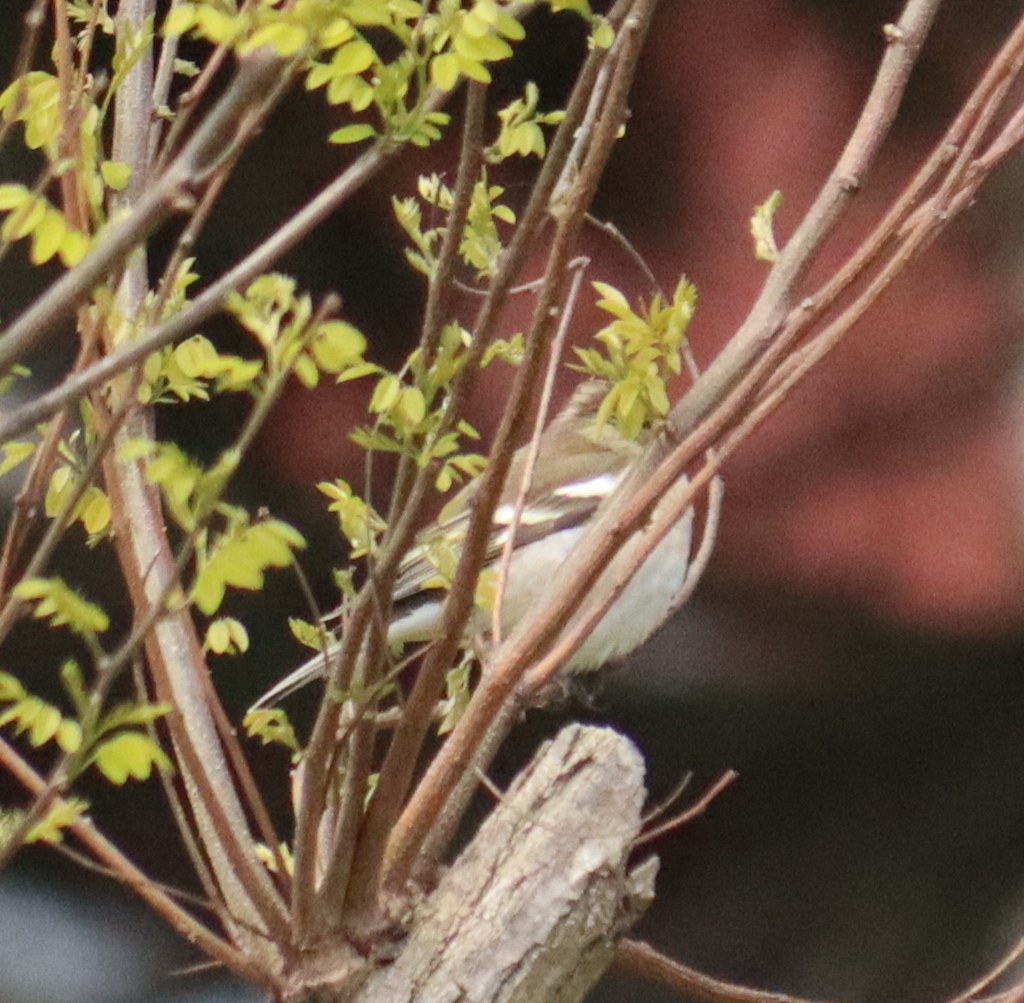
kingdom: Animalia
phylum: Chordata
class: Aves
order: Passeriformes
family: Fringillidae
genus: Fringilla
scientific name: Fringilla coelebs
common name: Common chaffinch
